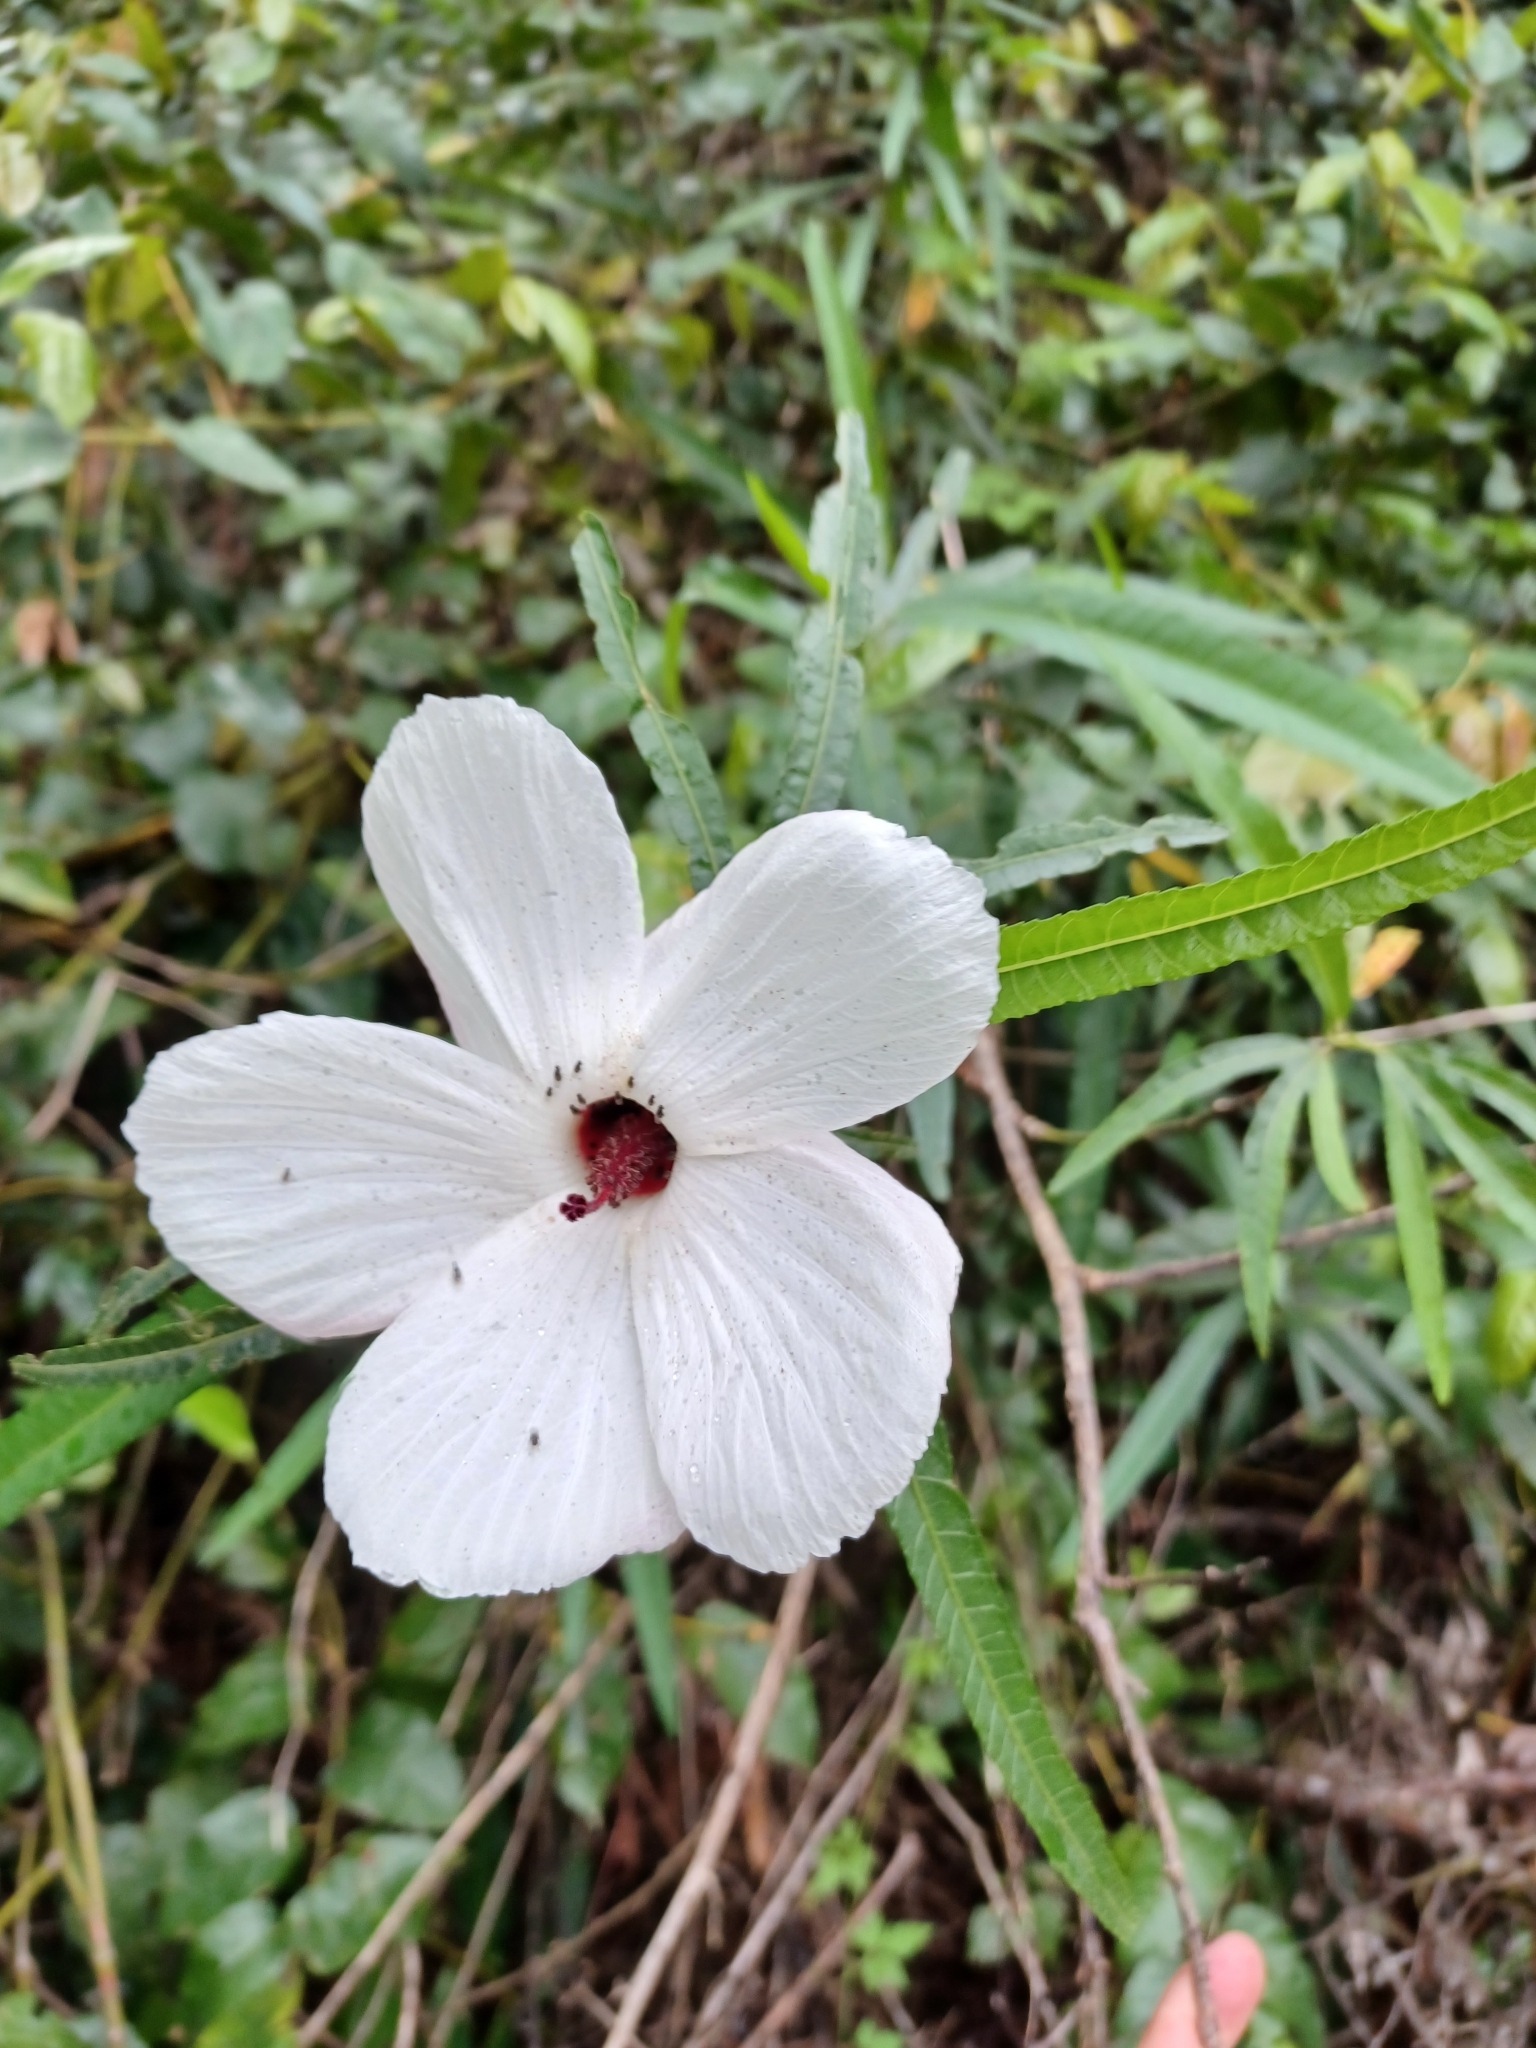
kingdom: Plantae
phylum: Tracheophyta
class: Magnoliopsida
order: Malvales
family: Malvaceae
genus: Hibiscus
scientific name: Hibiscus heterophyllus
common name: Queensland-sorrel
